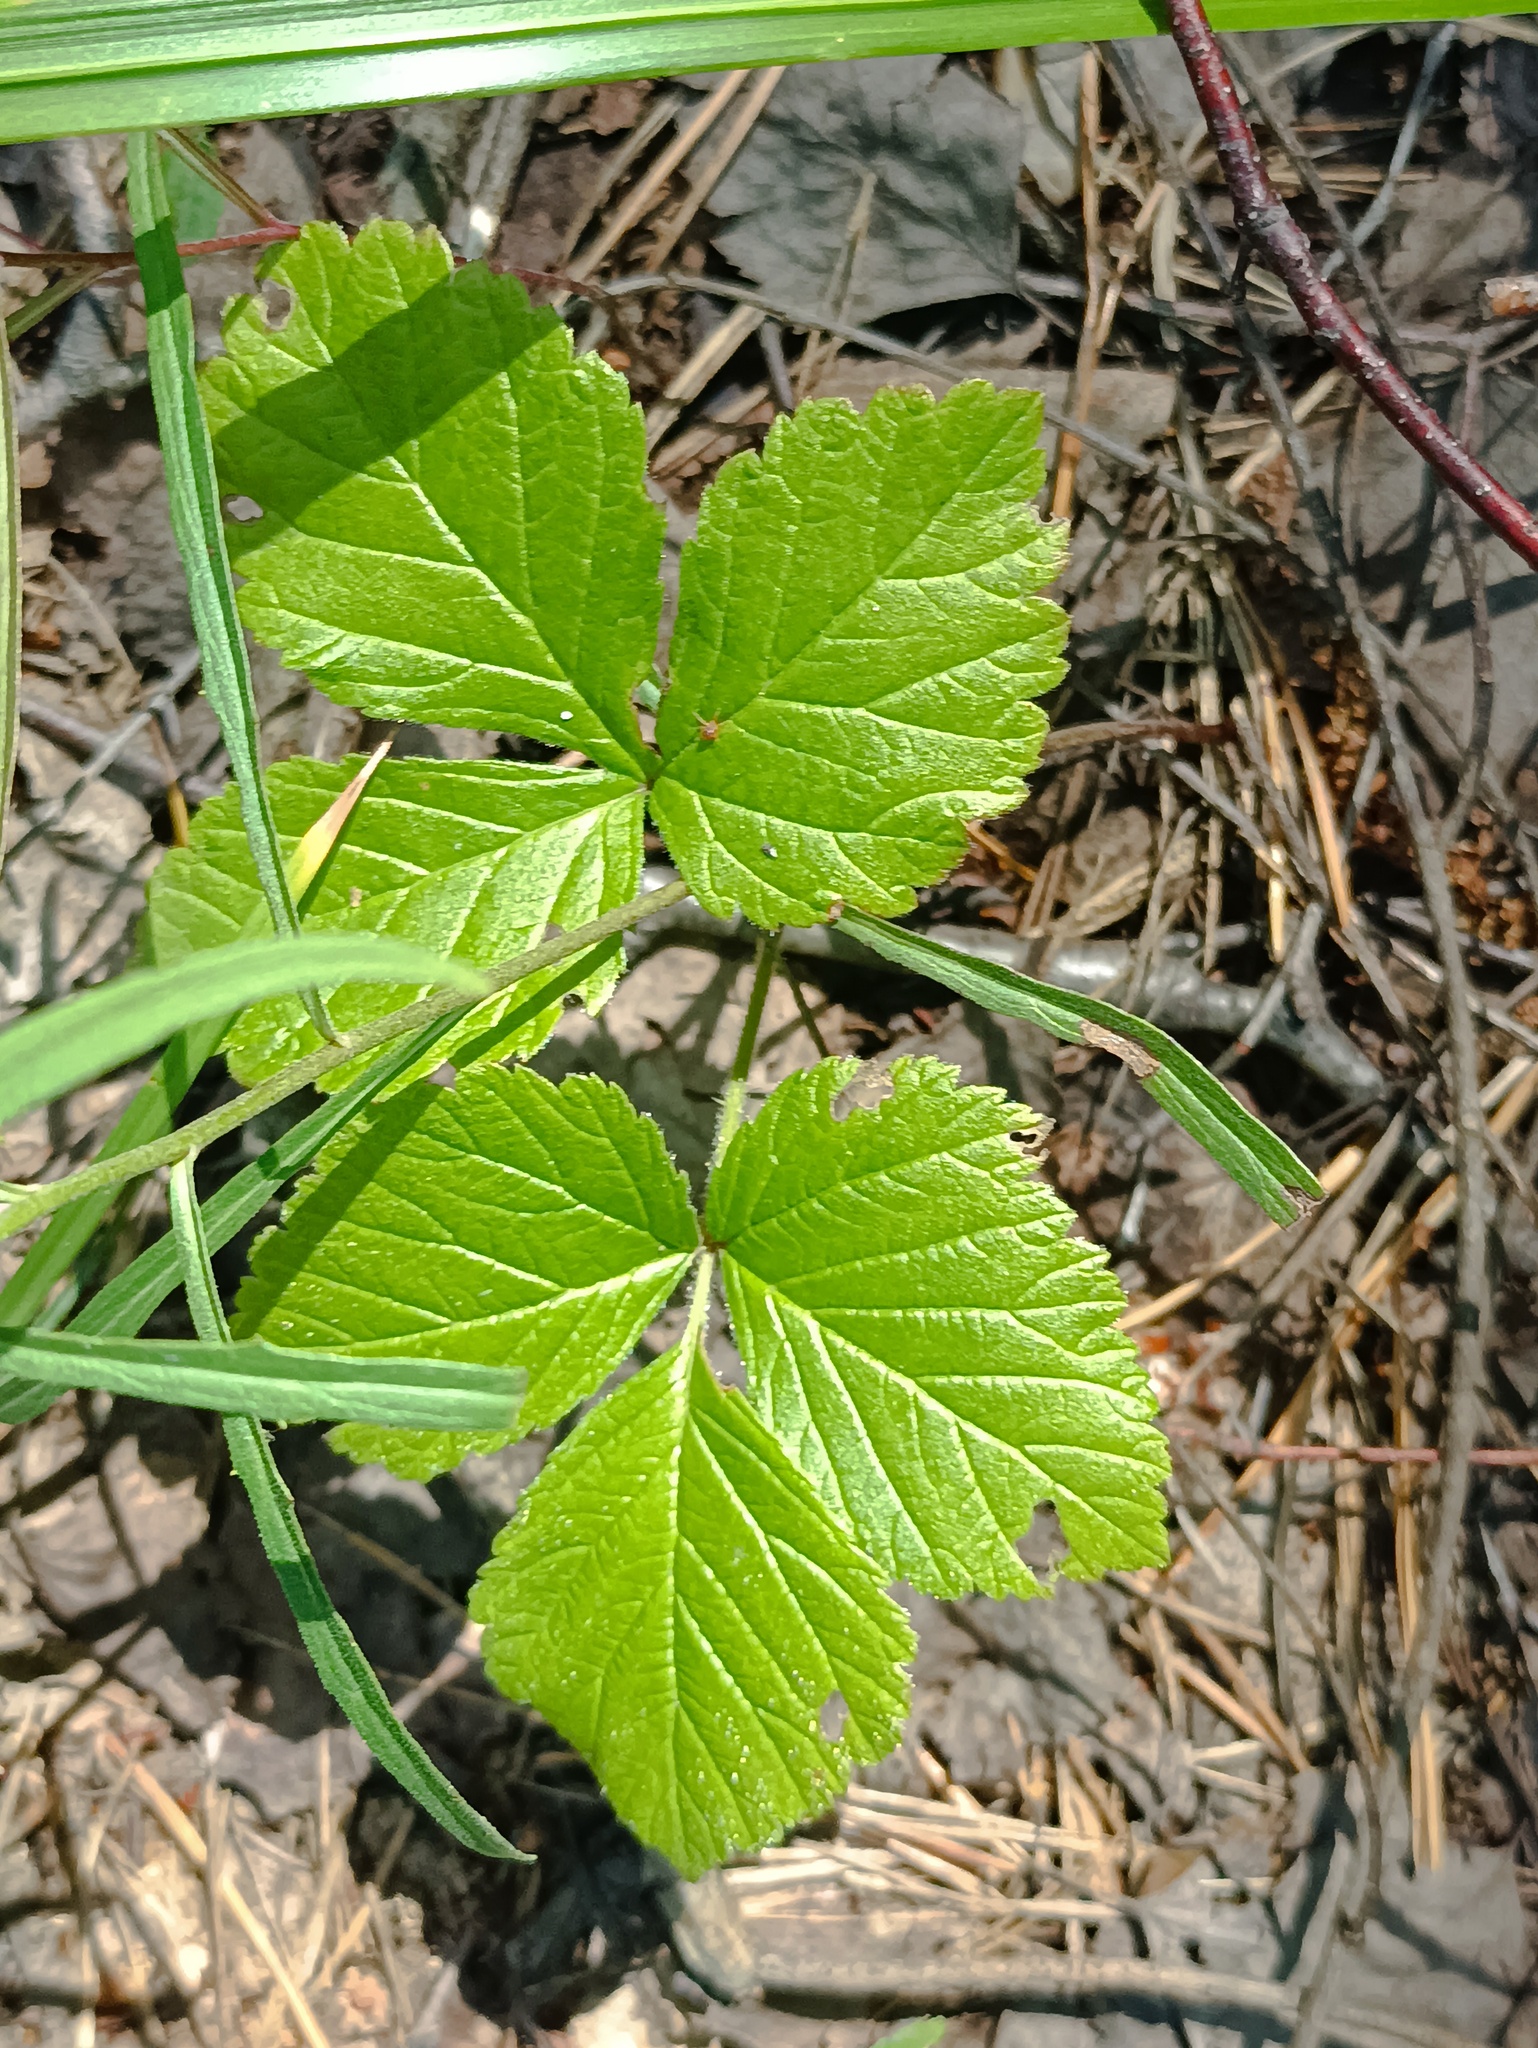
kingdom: Plantae
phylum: Tracheophyta
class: Magnoliopsida
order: Rosales
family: Rosaceae
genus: Rubus
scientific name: Rubus saxatilis
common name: Stone bramble
